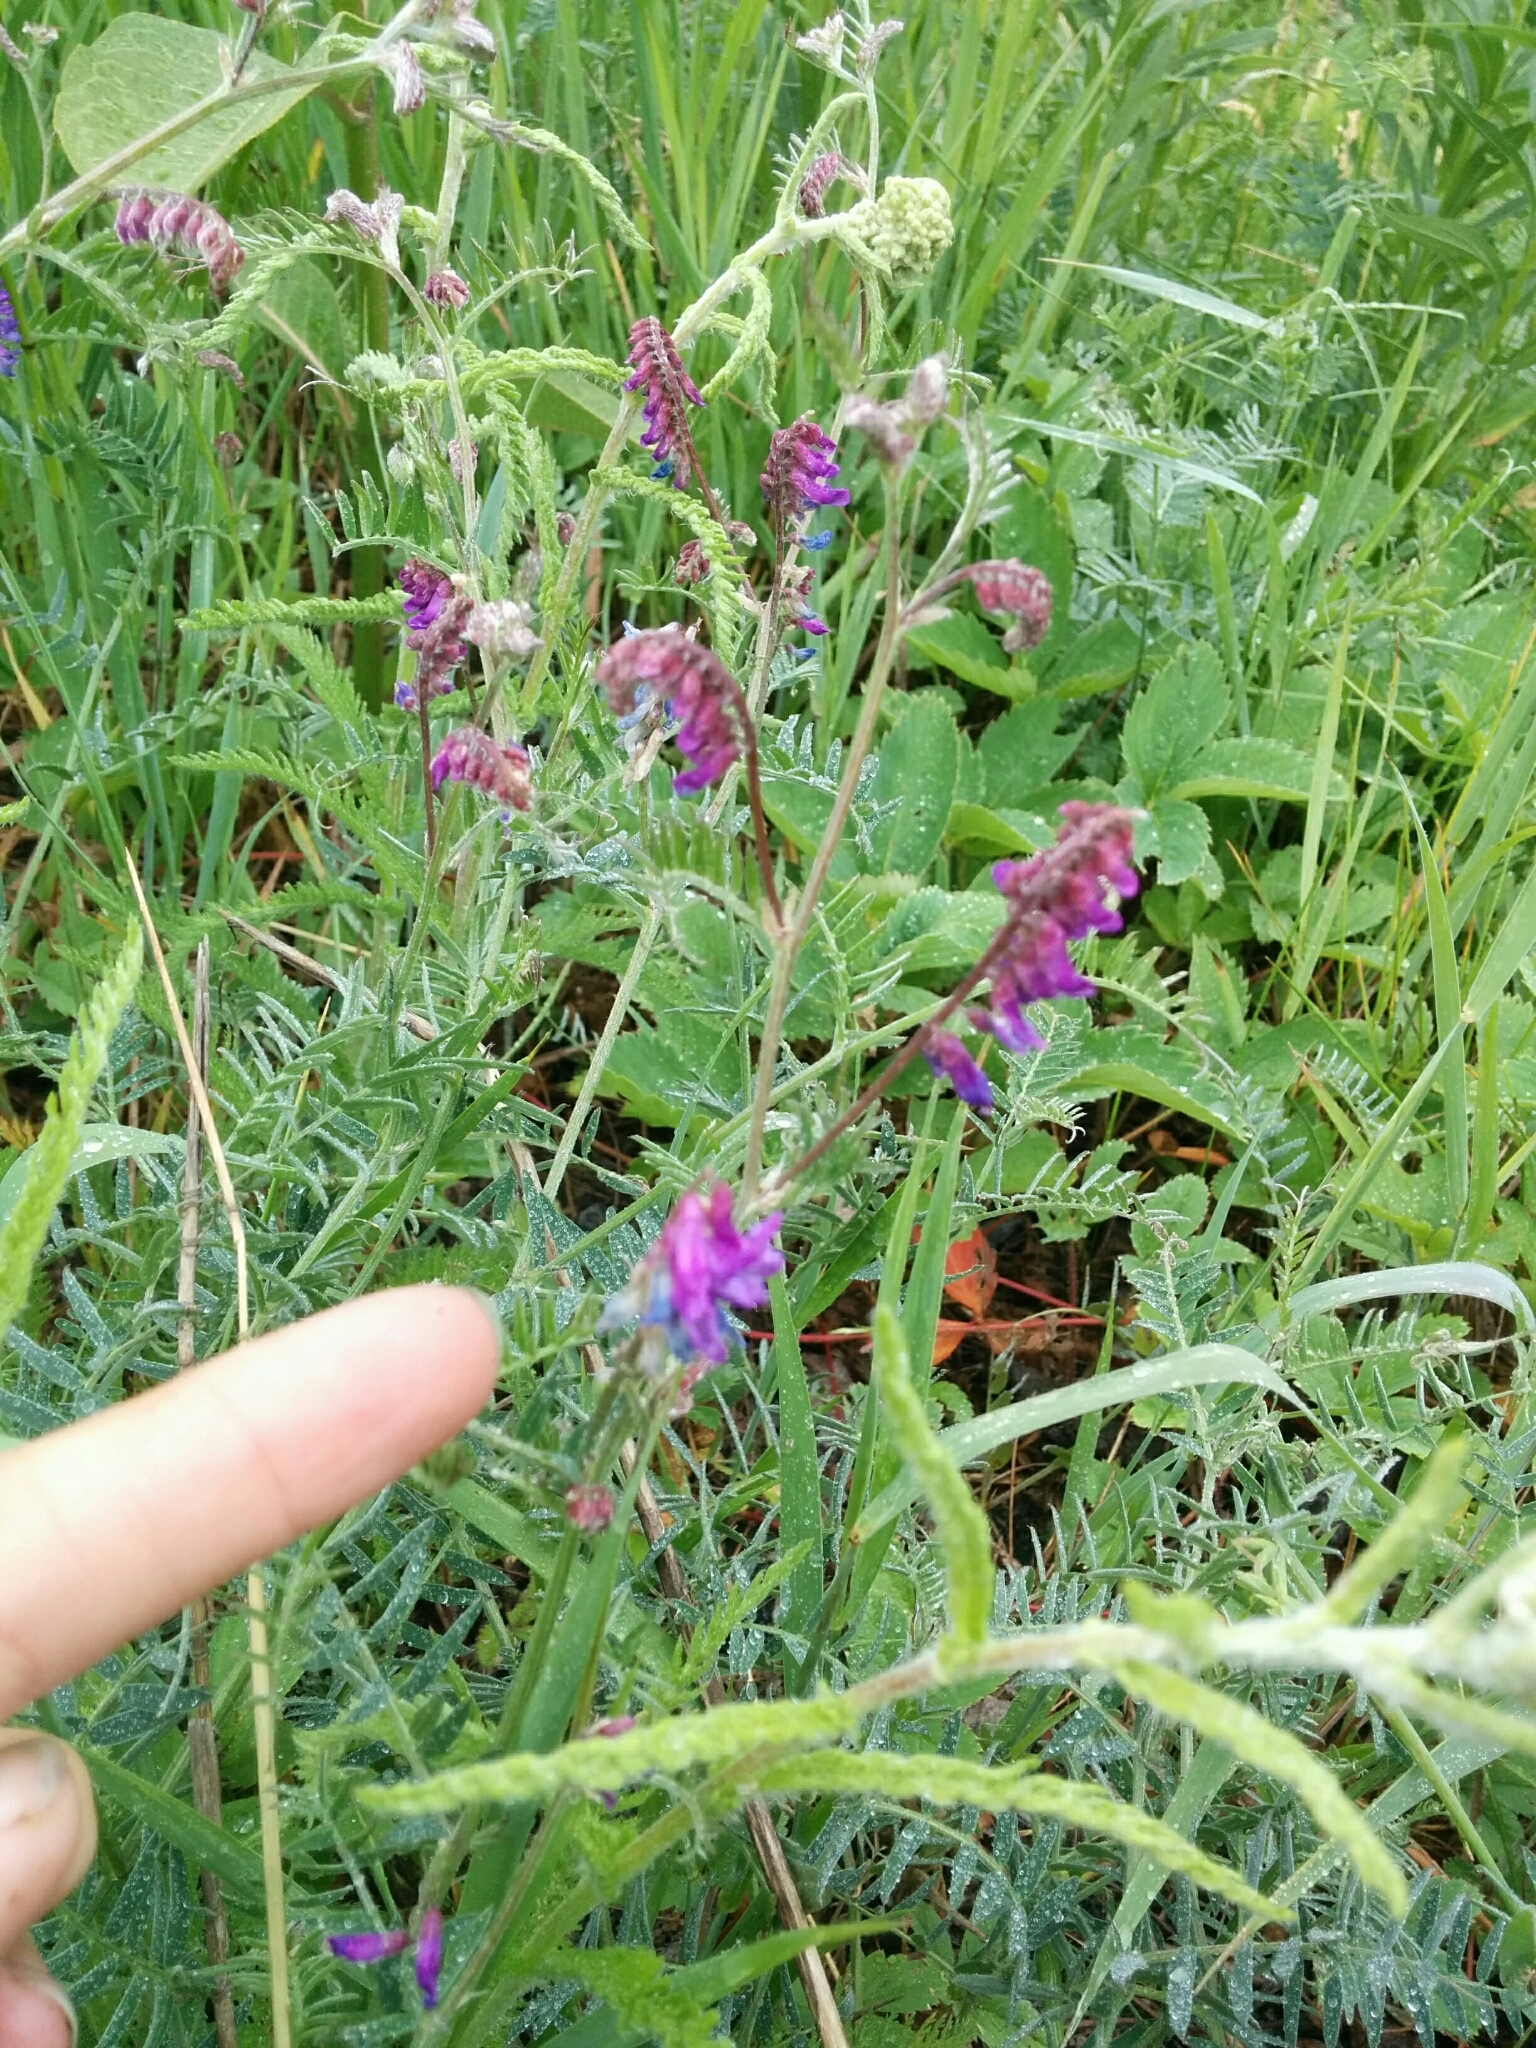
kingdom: Plantae
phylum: Tracheophyta
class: Magnoliopsida
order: Fabales
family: Fabaceae
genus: Vicia
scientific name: Vicia cracca
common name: Bird vetch
